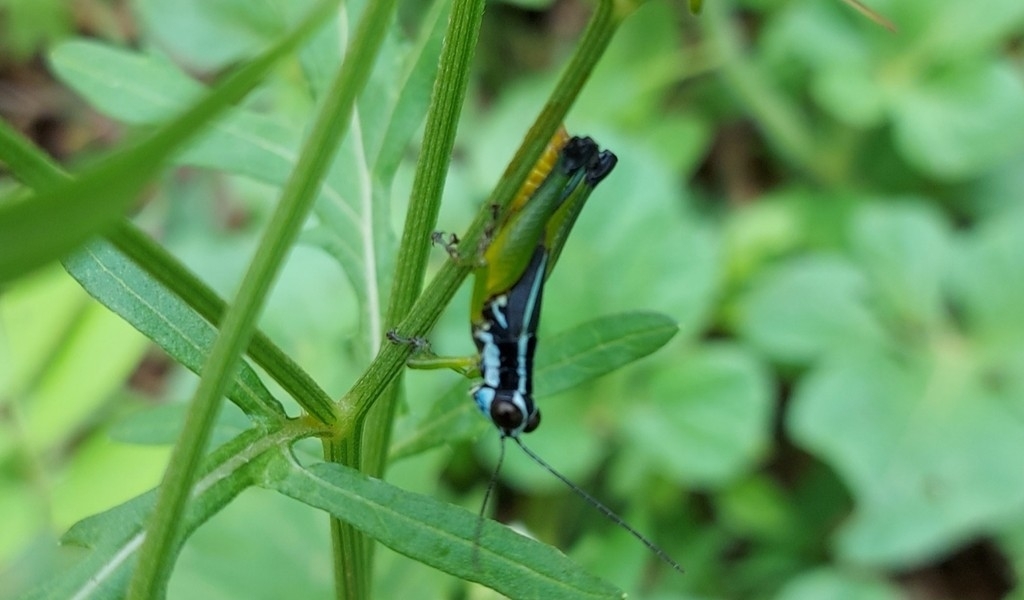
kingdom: Animalia
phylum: Arthropoda
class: Insecta
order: Orthoptera
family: Acrididae
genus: Digamacris
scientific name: Digamacris fraterna
